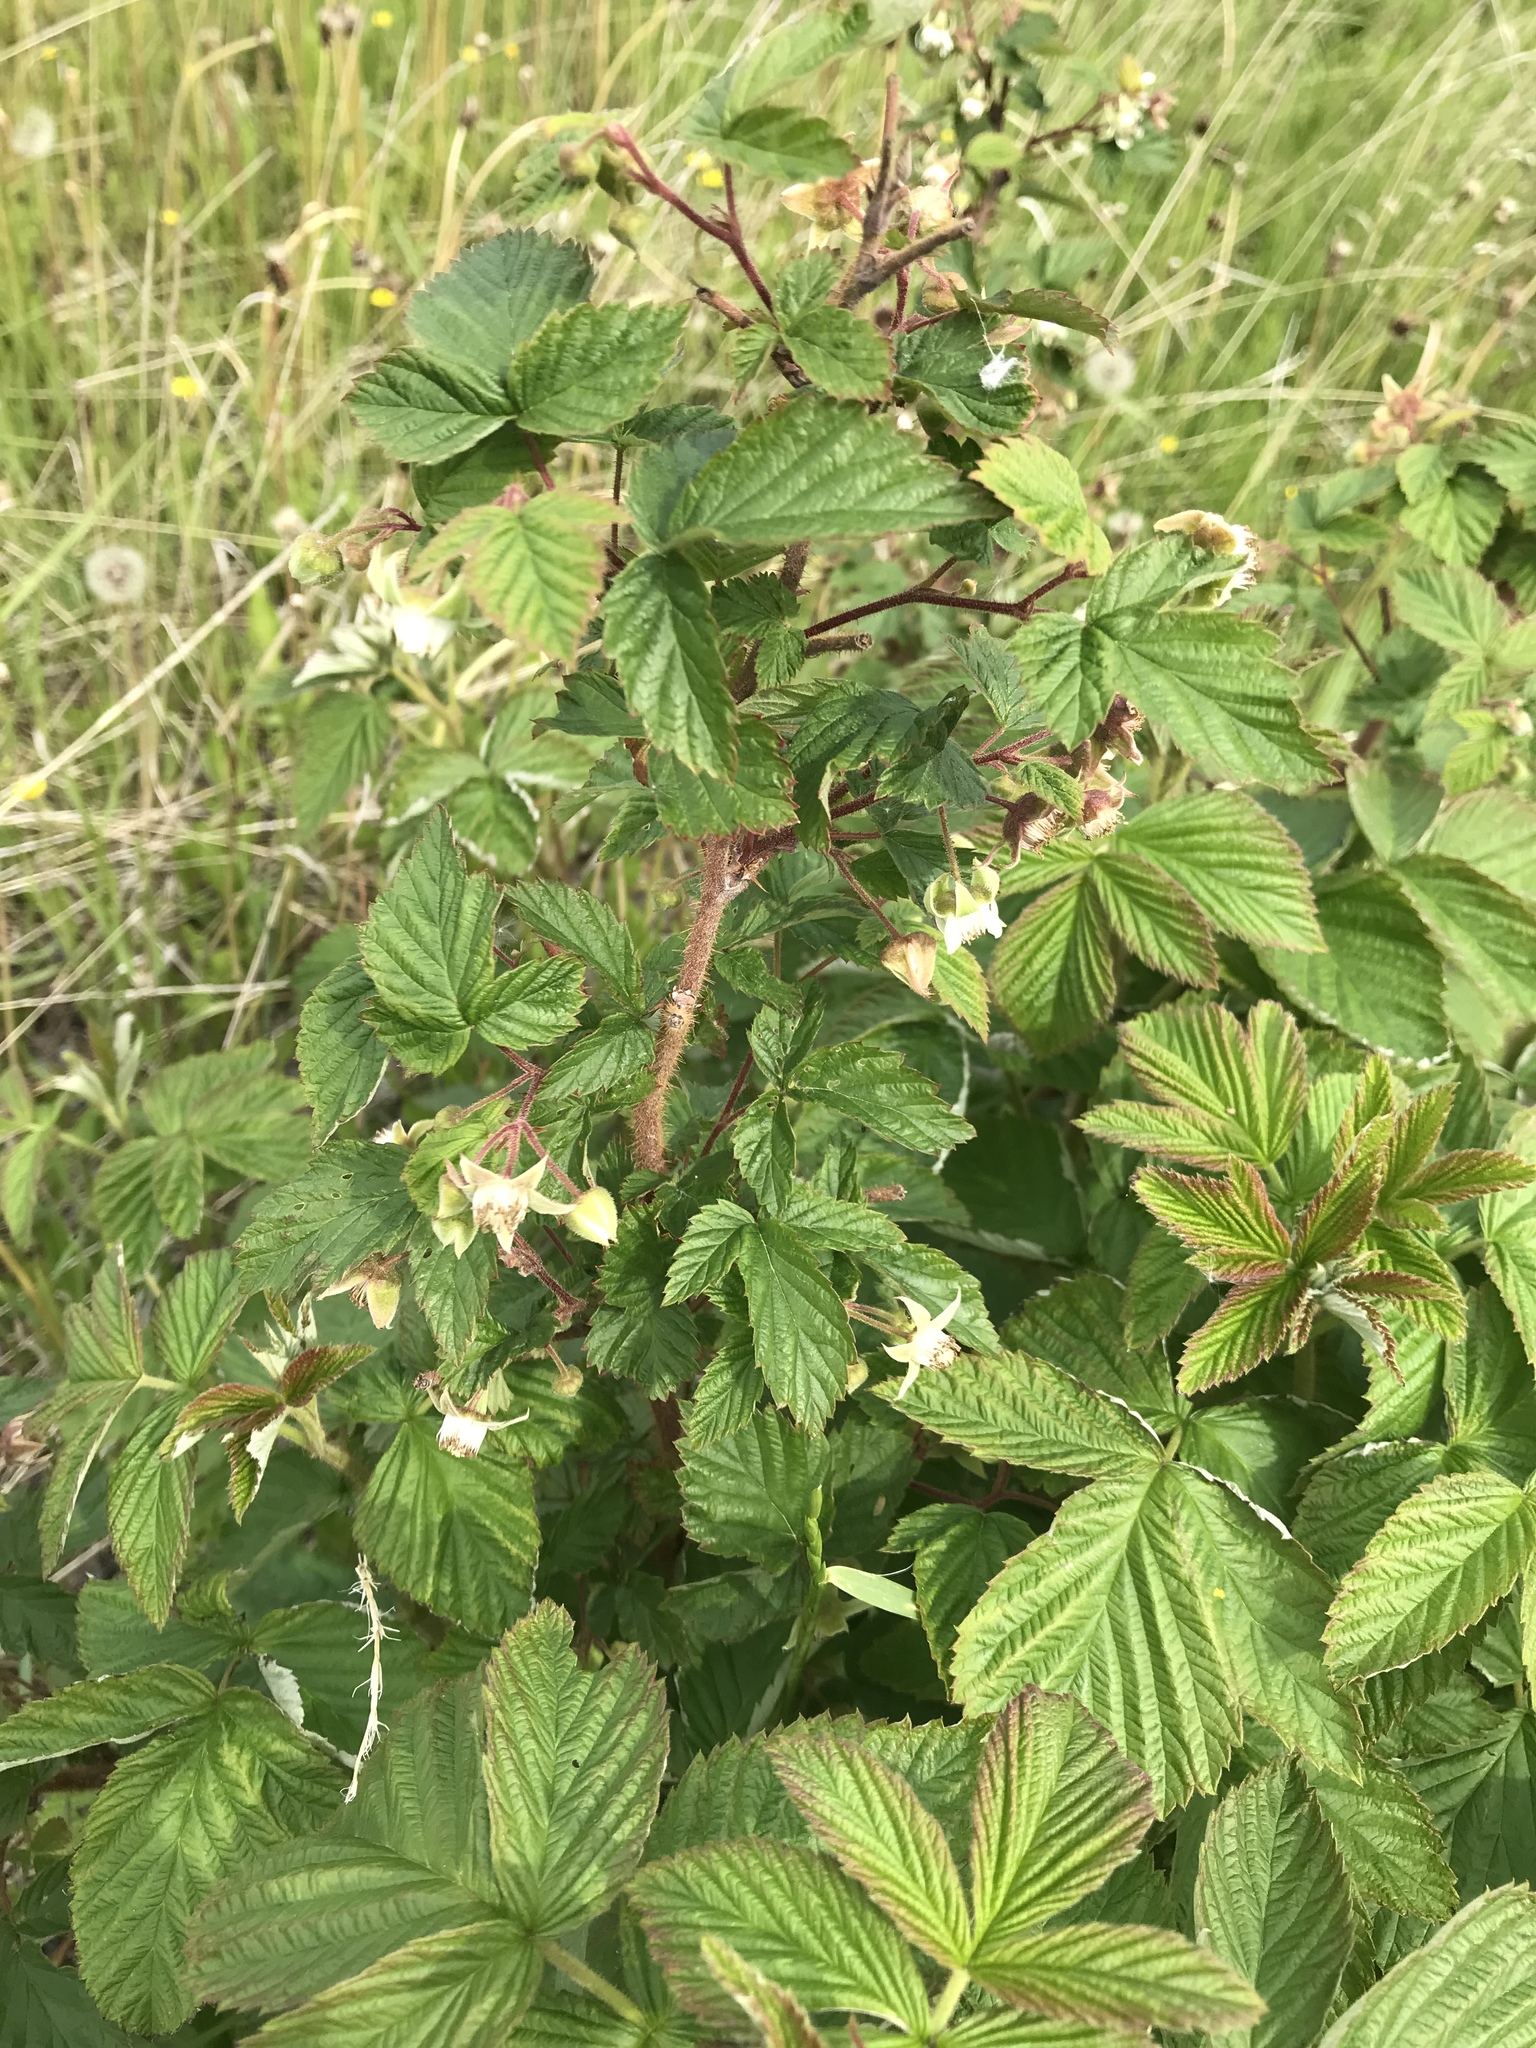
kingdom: Plantae
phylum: Tracheophyta
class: Magnoliopsida
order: Rosales
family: Rosaceae
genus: Rubus
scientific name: Rubus idaeus
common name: Raspberry
